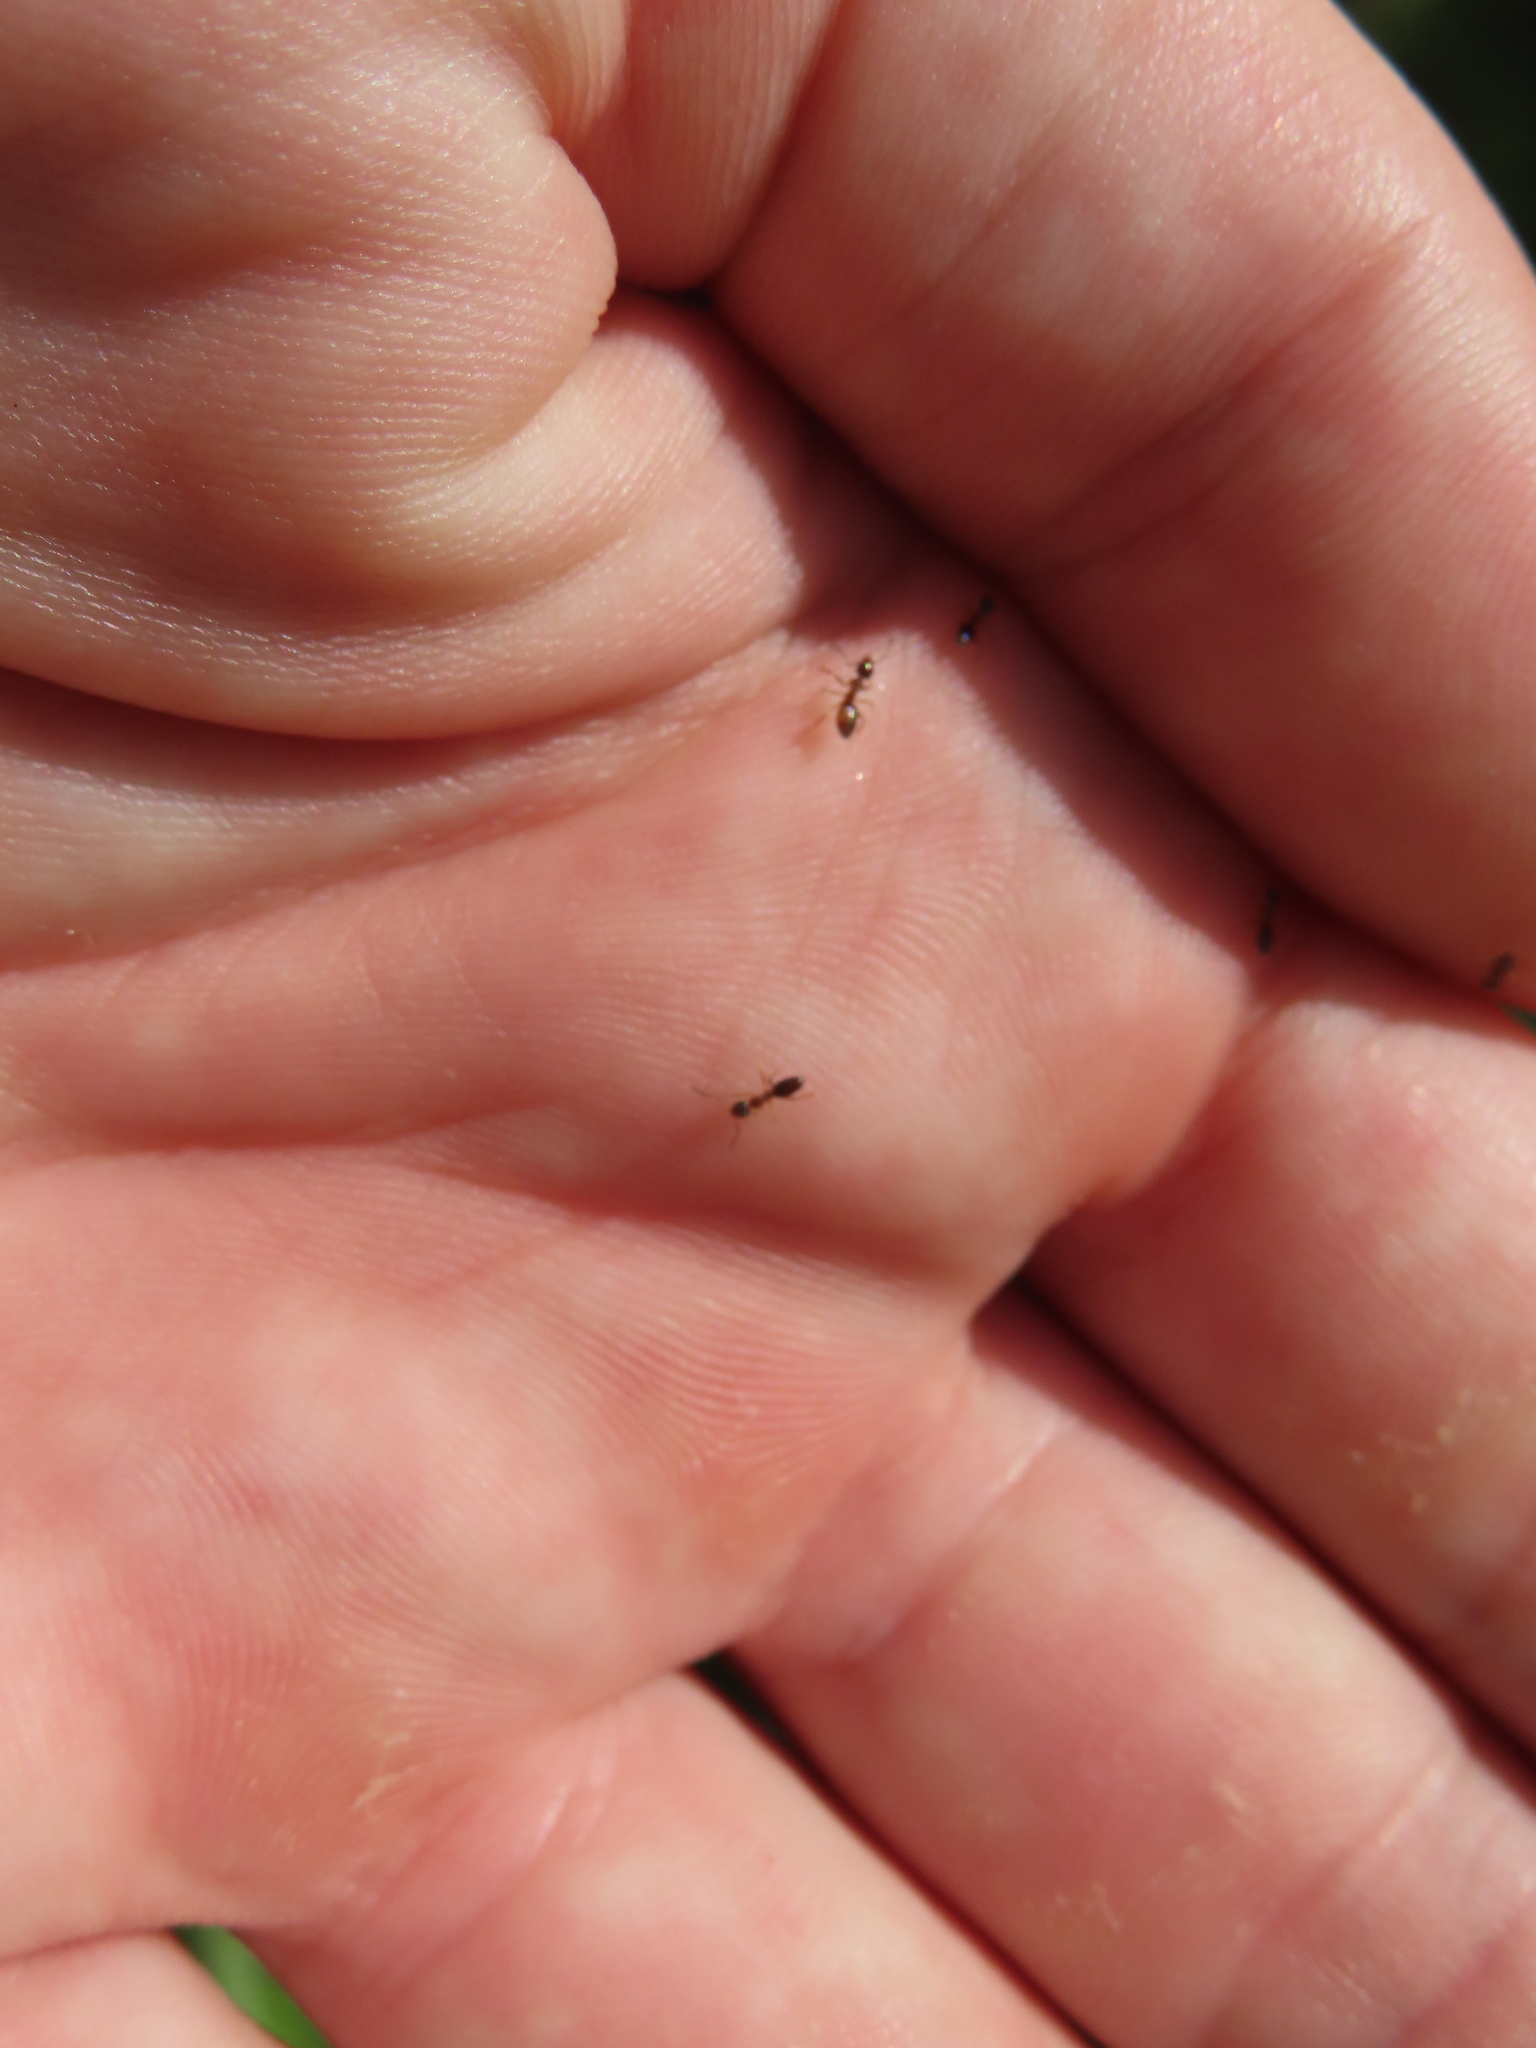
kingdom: Animalia
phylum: Arthropoda
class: Insecta
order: Hymenoptera
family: Formicidae
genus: Tapinoma
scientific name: Tapinoma sessile
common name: Odorous house ant
